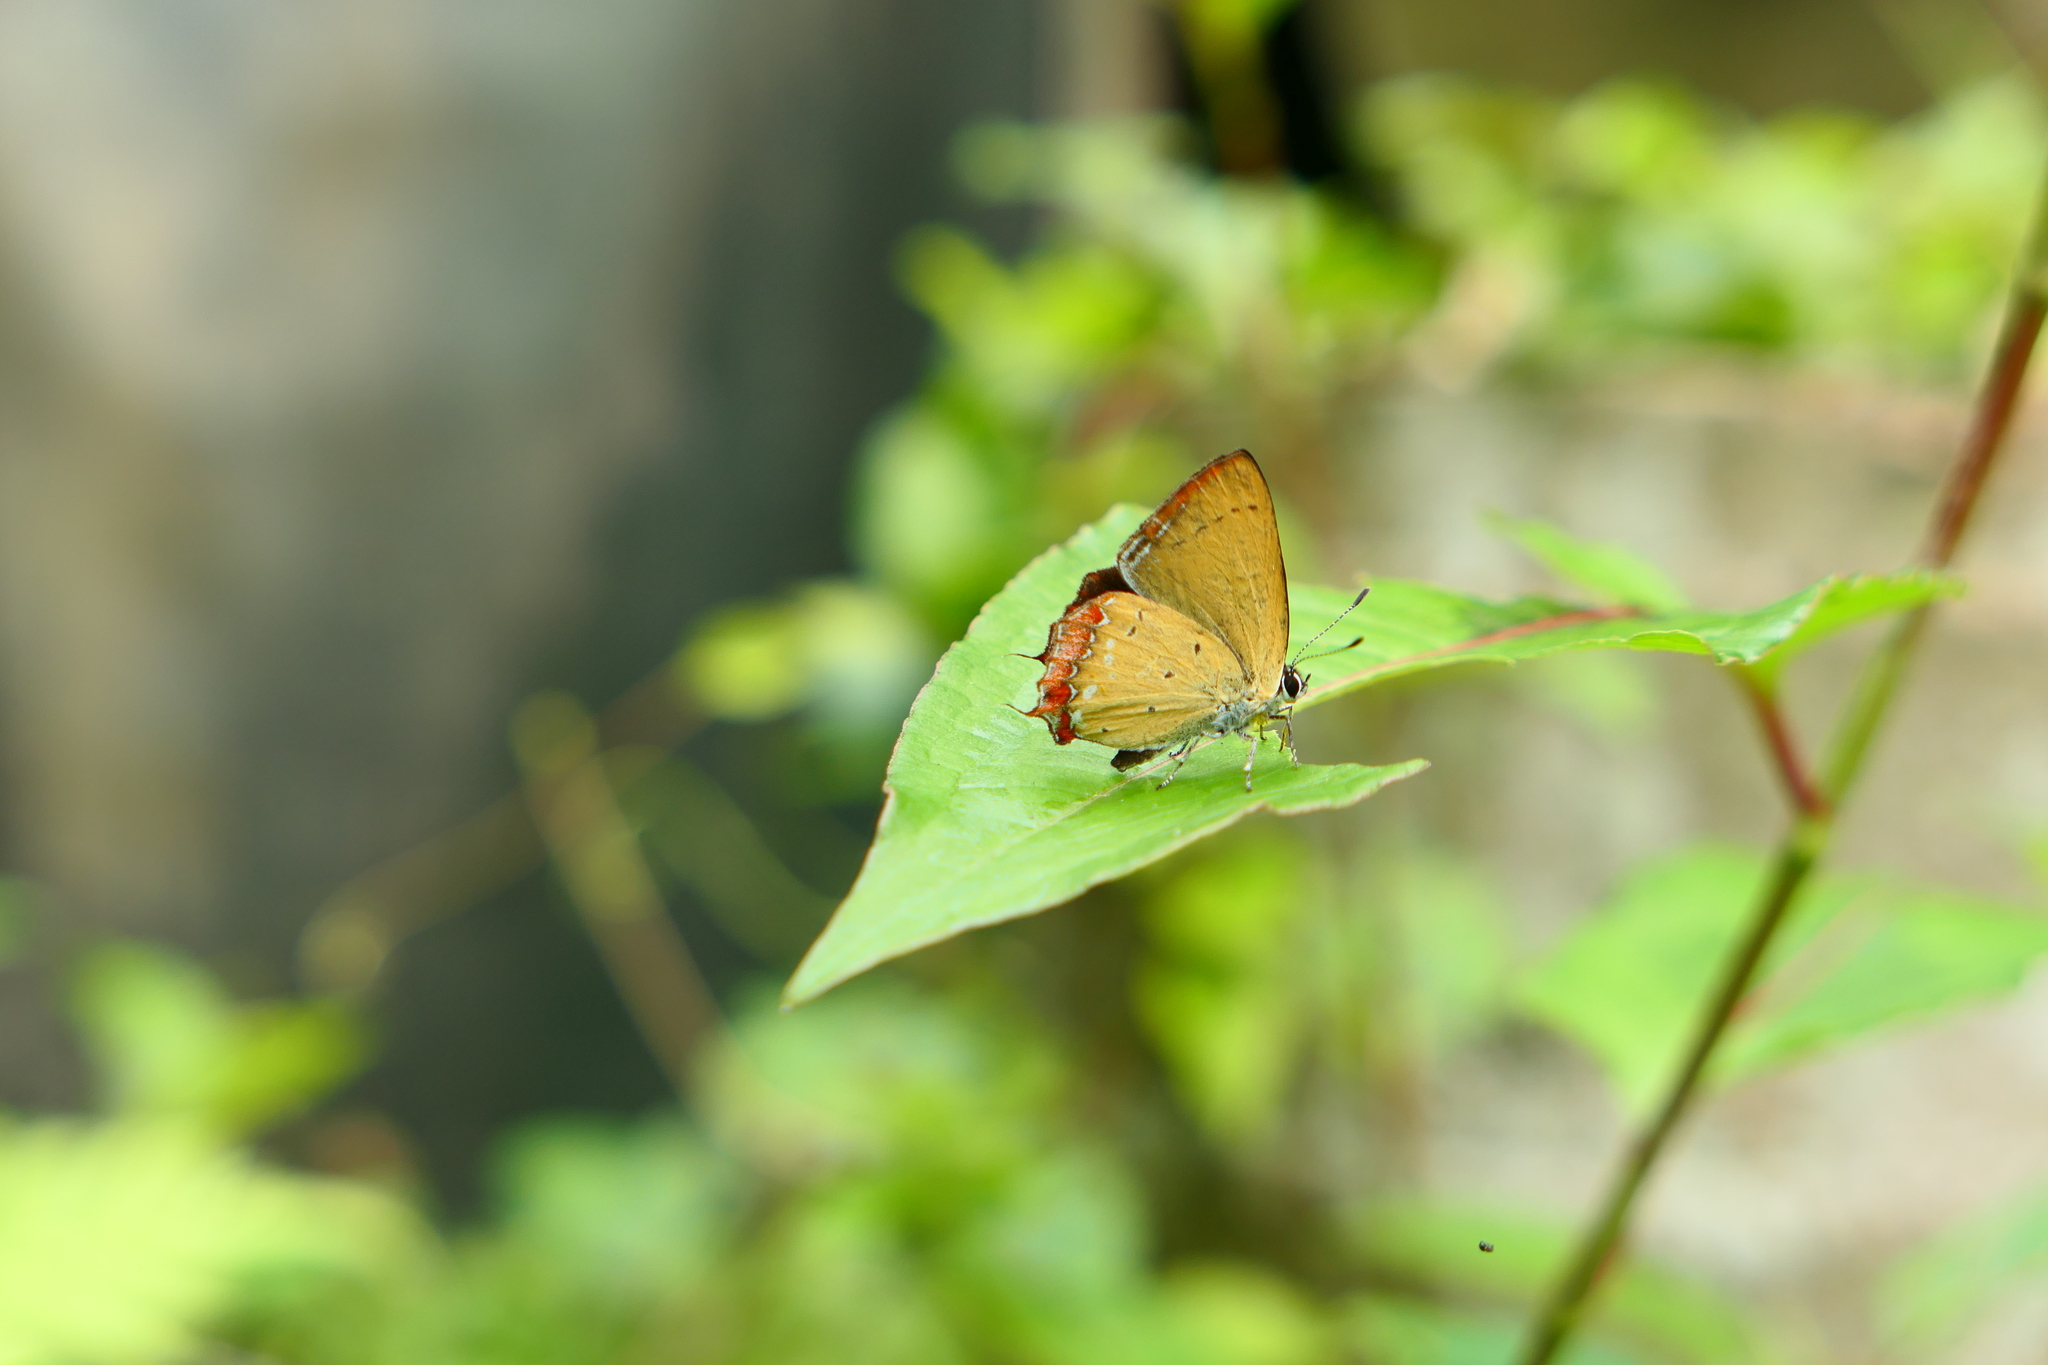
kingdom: Animalia
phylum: Arthropoda
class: Insecta
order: Lepidoptera
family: Lycaenidae
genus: Heliophorus
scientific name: Heliophorus ila
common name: Restricted purple sapphire
